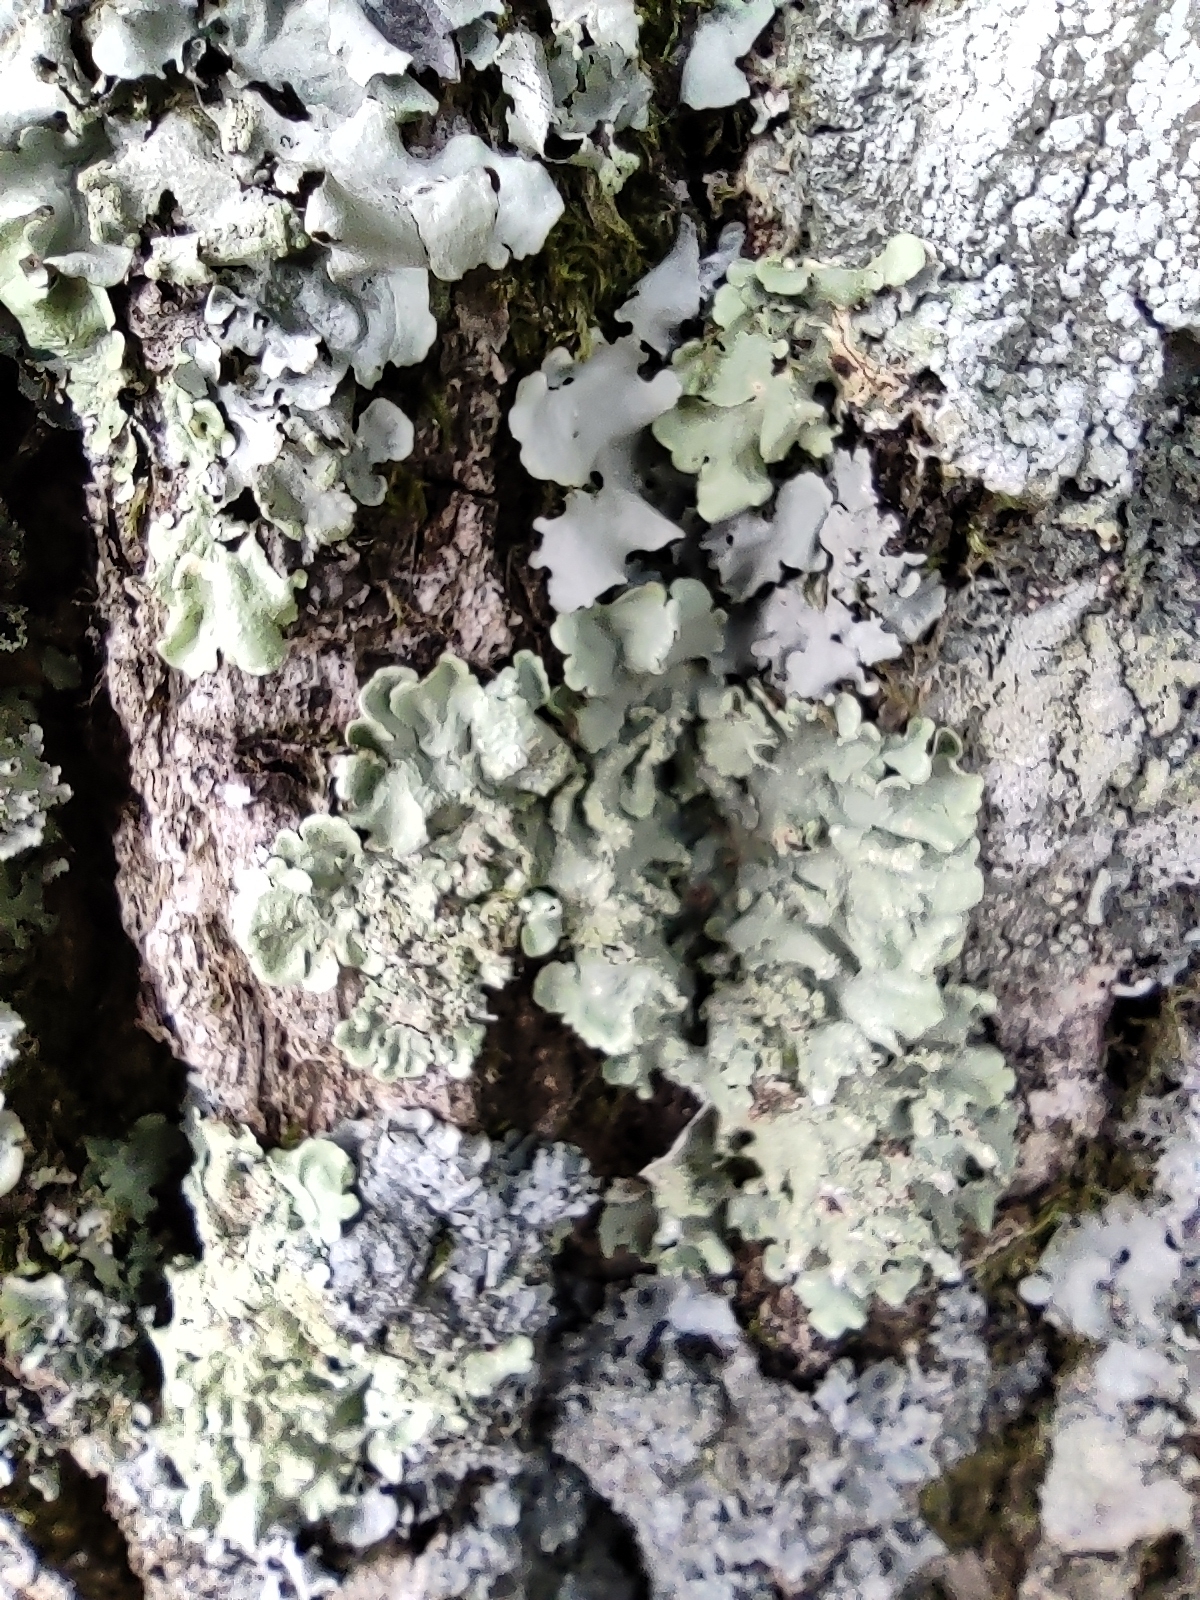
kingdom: Fungi
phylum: Ascomycota
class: Lecanoromycetes
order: Lecanorales
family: Parmeliaceae
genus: Flavoparmelia
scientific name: Flavoparmelia caperata
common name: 40-mile per hour lichen
